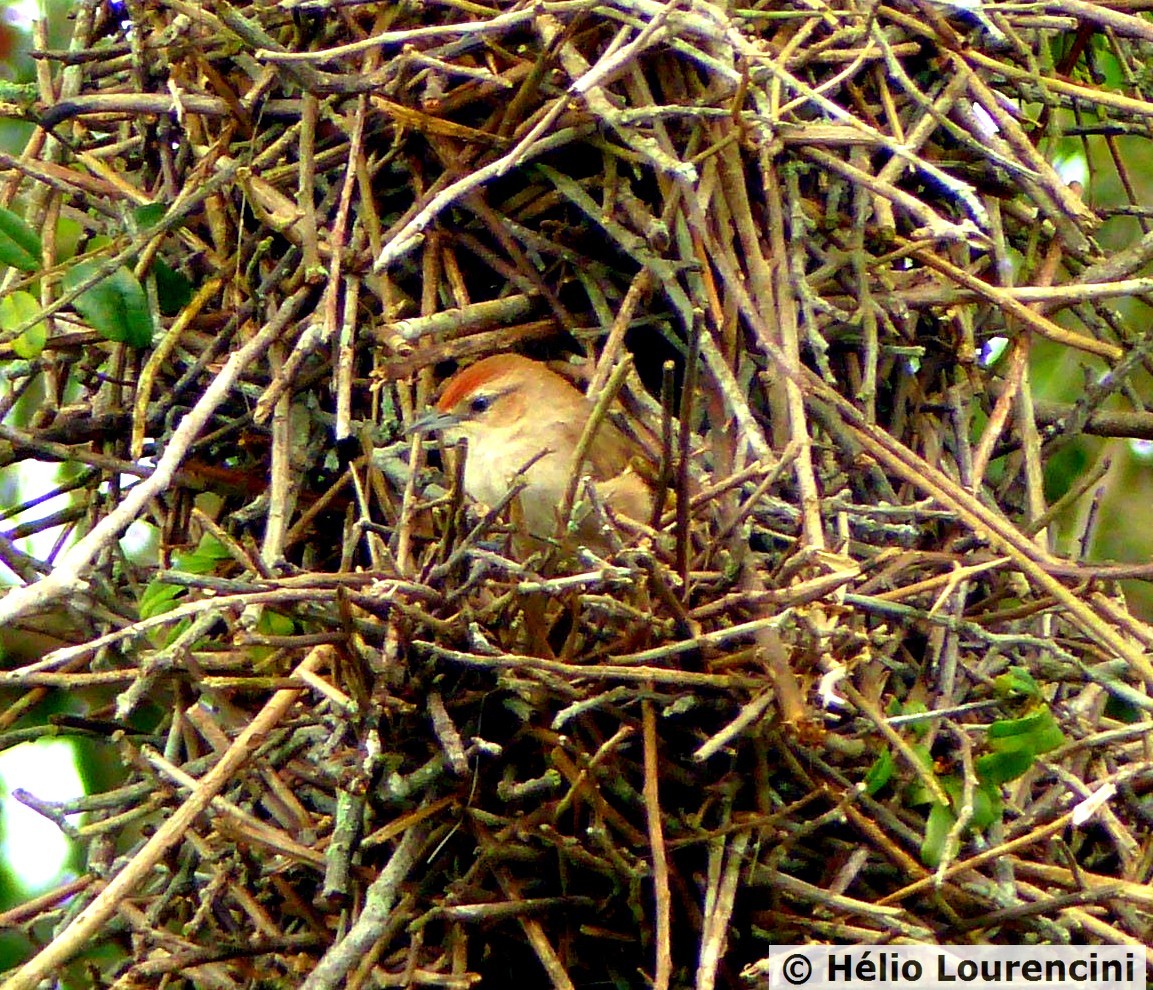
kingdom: Animalia
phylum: Chordata
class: Aves
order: Passeriformes
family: Furnariidae
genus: Phacellodomus
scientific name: Phacellodomus rufifrons
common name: Rufous-fronted thornbird
